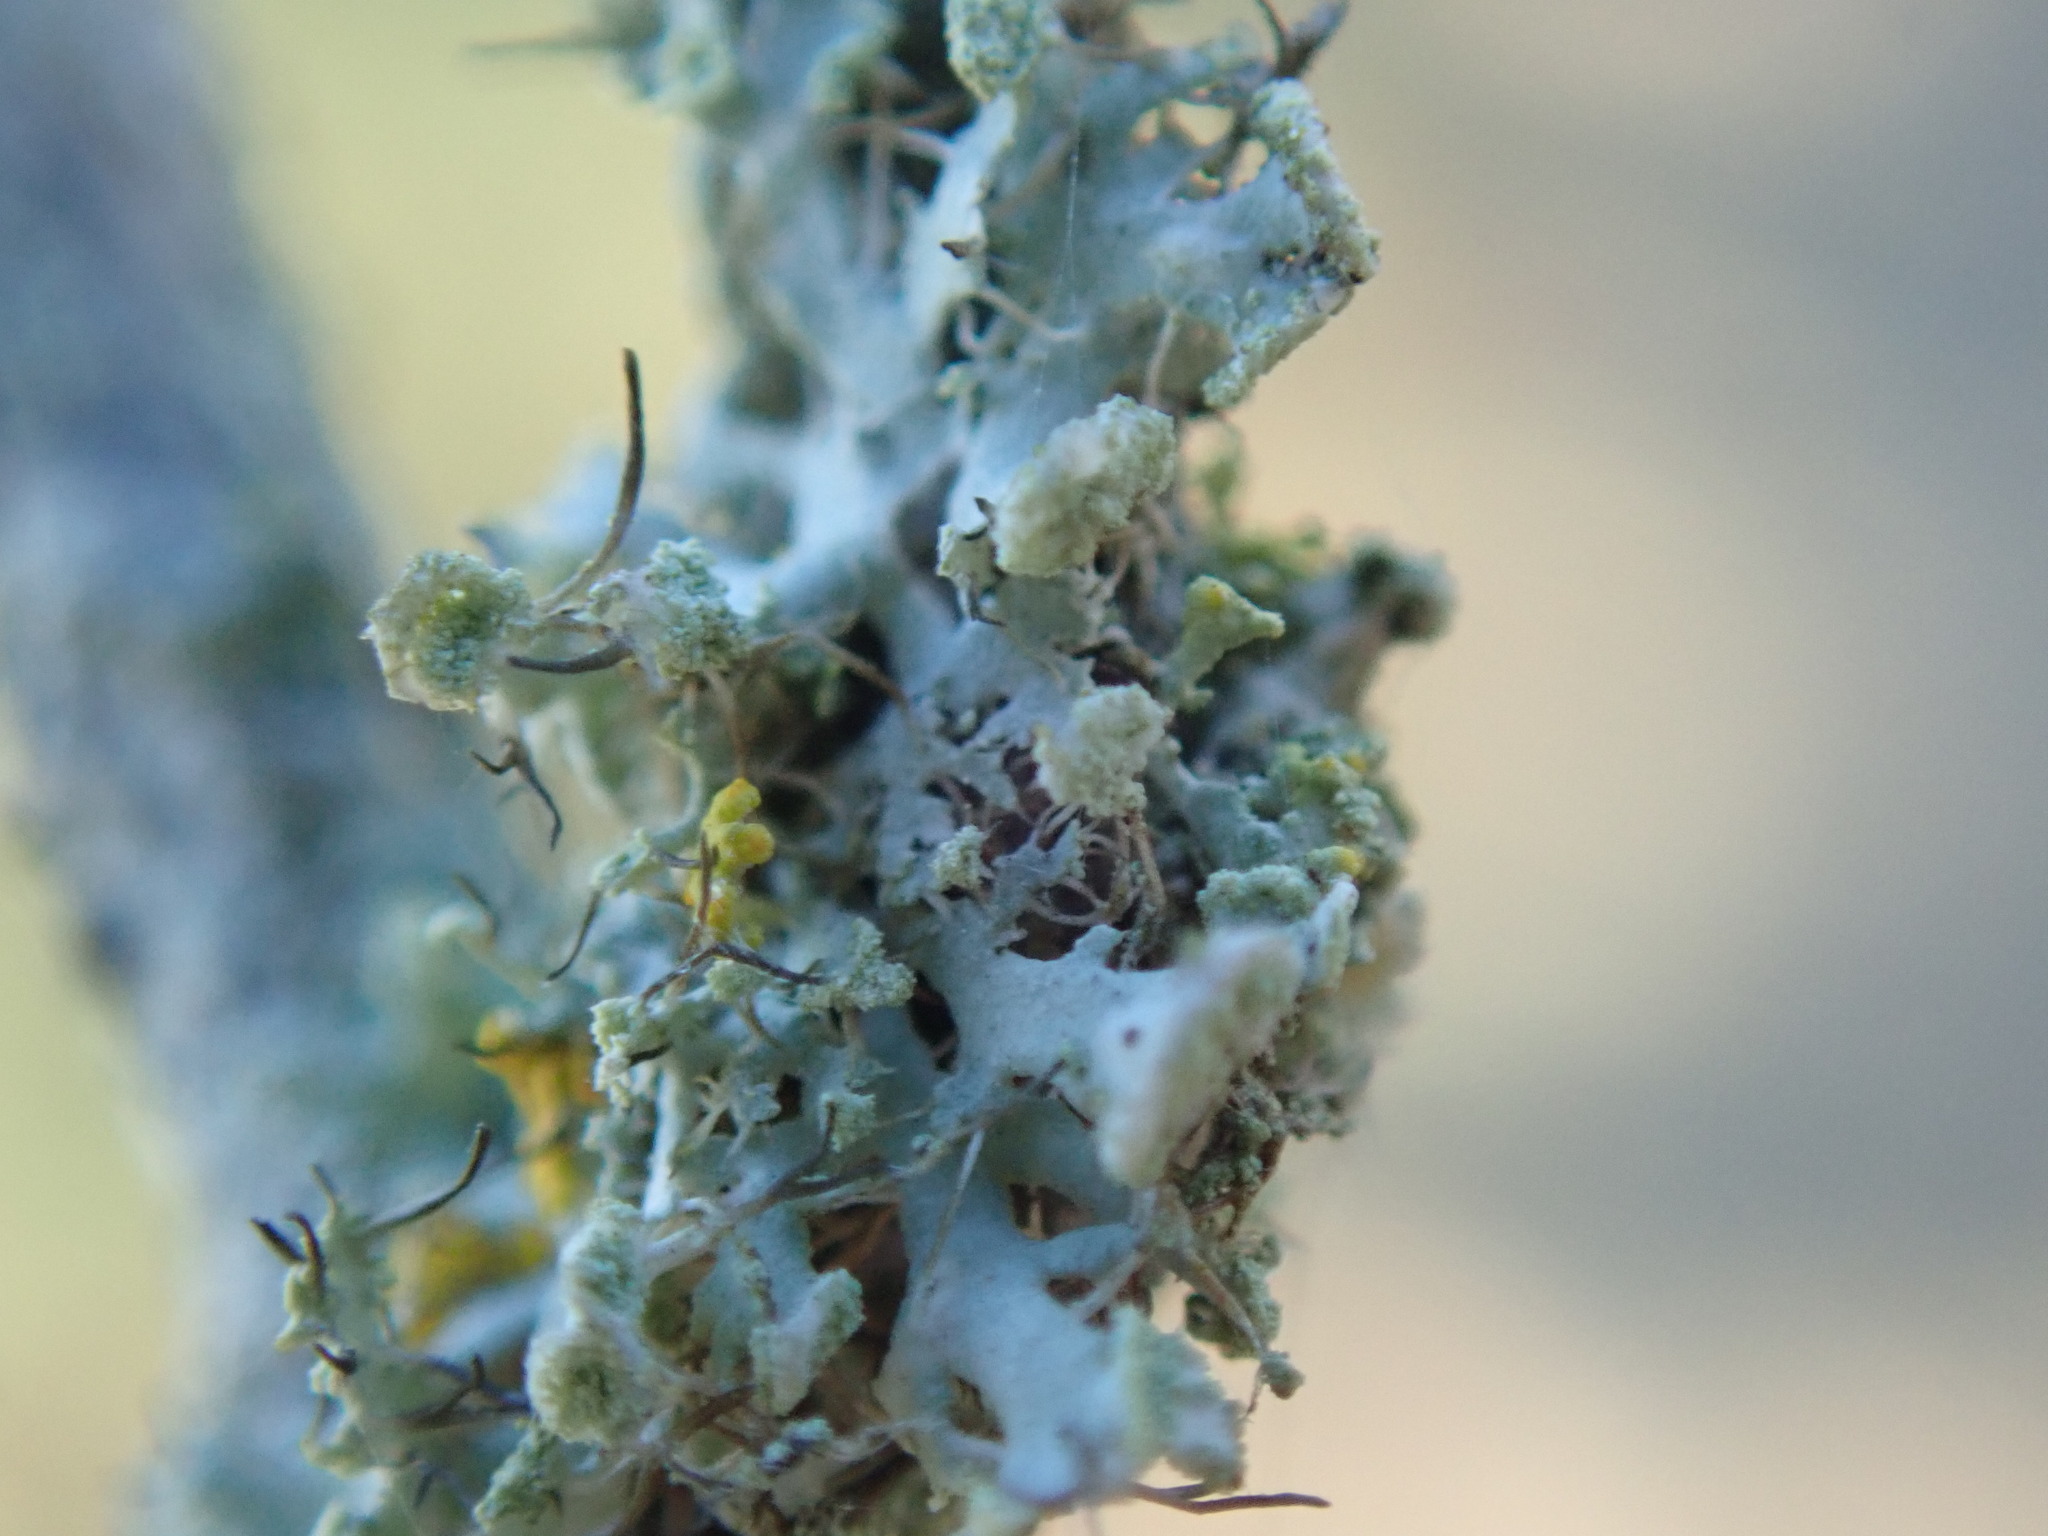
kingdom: Fungi
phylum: Ascomycota
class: Lecanoromycetes
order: Caliciales
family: Physciaceae
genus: Physcia
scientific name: Physcia tenella
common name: Fringed rosette lichen
